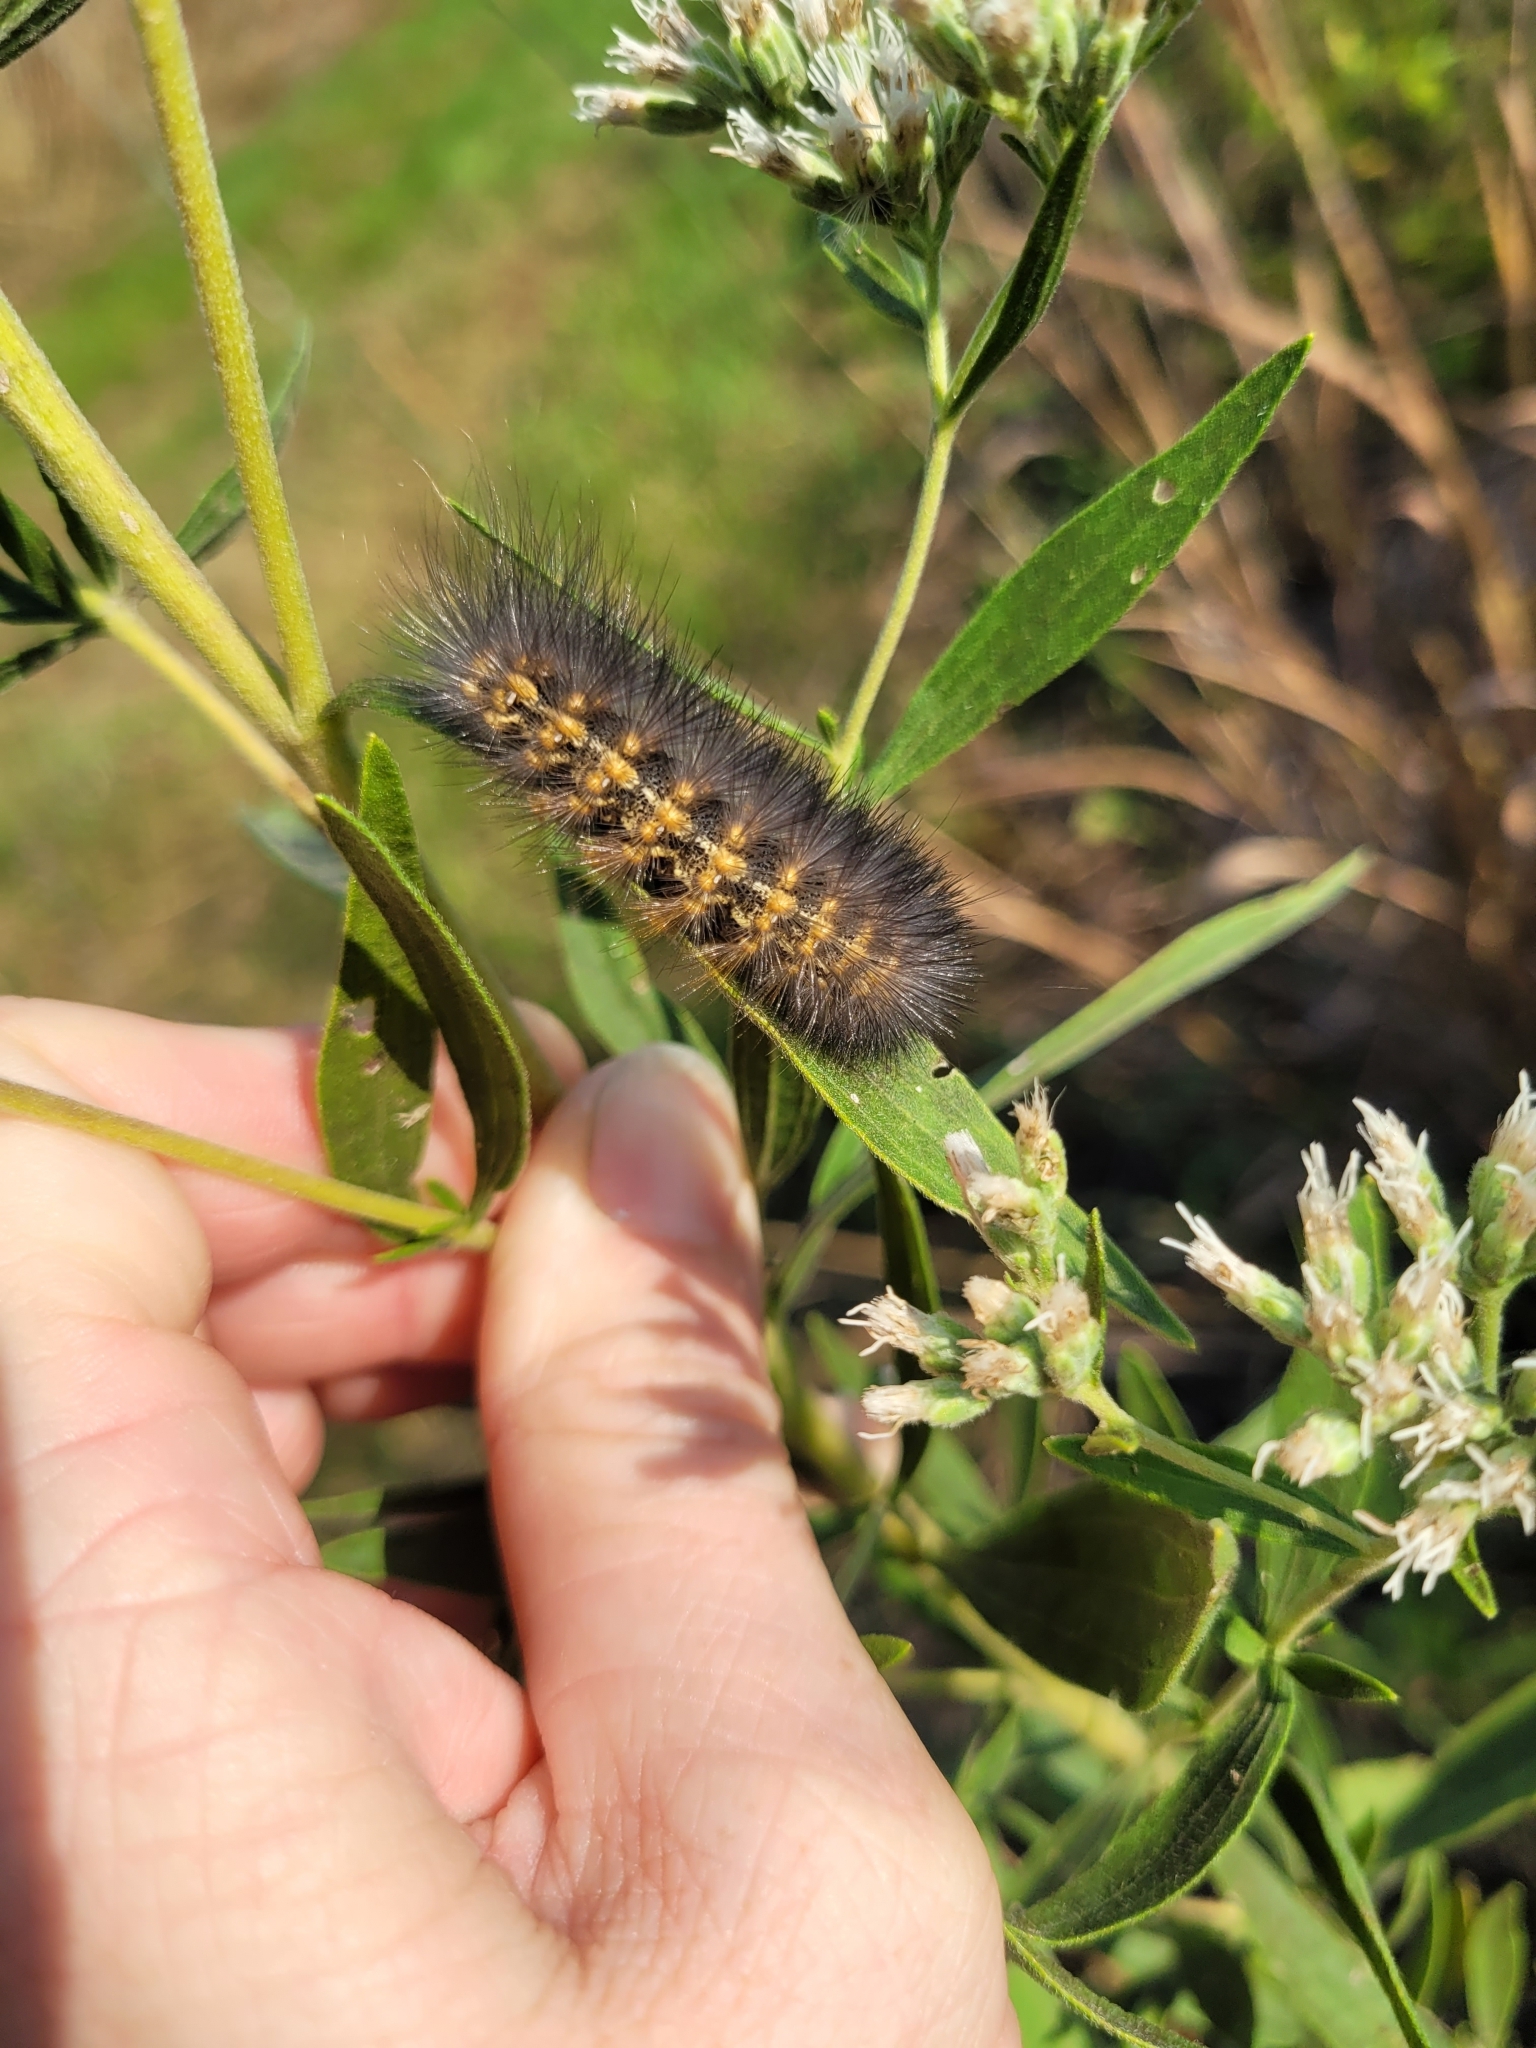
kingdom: Animalia
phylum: Arthropoda
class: Insecta
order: Lepidoptera
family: Erebidae
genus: Estigmene
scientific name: Estigmene acrea
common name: Salt marsh moth
